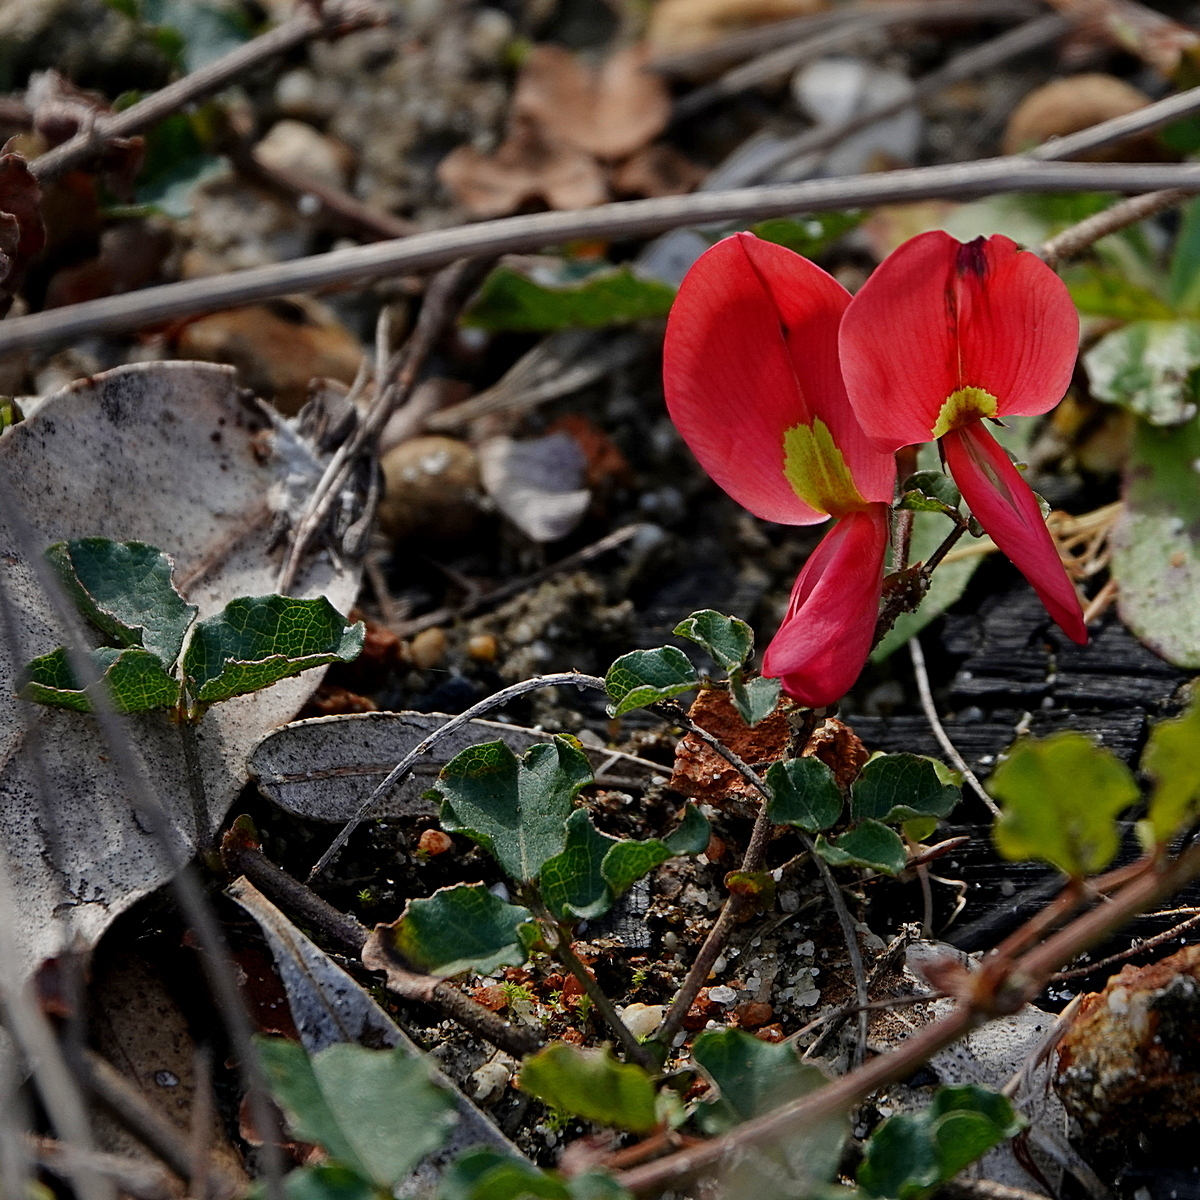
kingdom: Plantae
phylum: Tracheophyta
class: Magnoliopsida
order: Fabales
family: Fabaceae
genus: Kennedia
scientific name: Kennedia prostrata
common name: Running-postman
